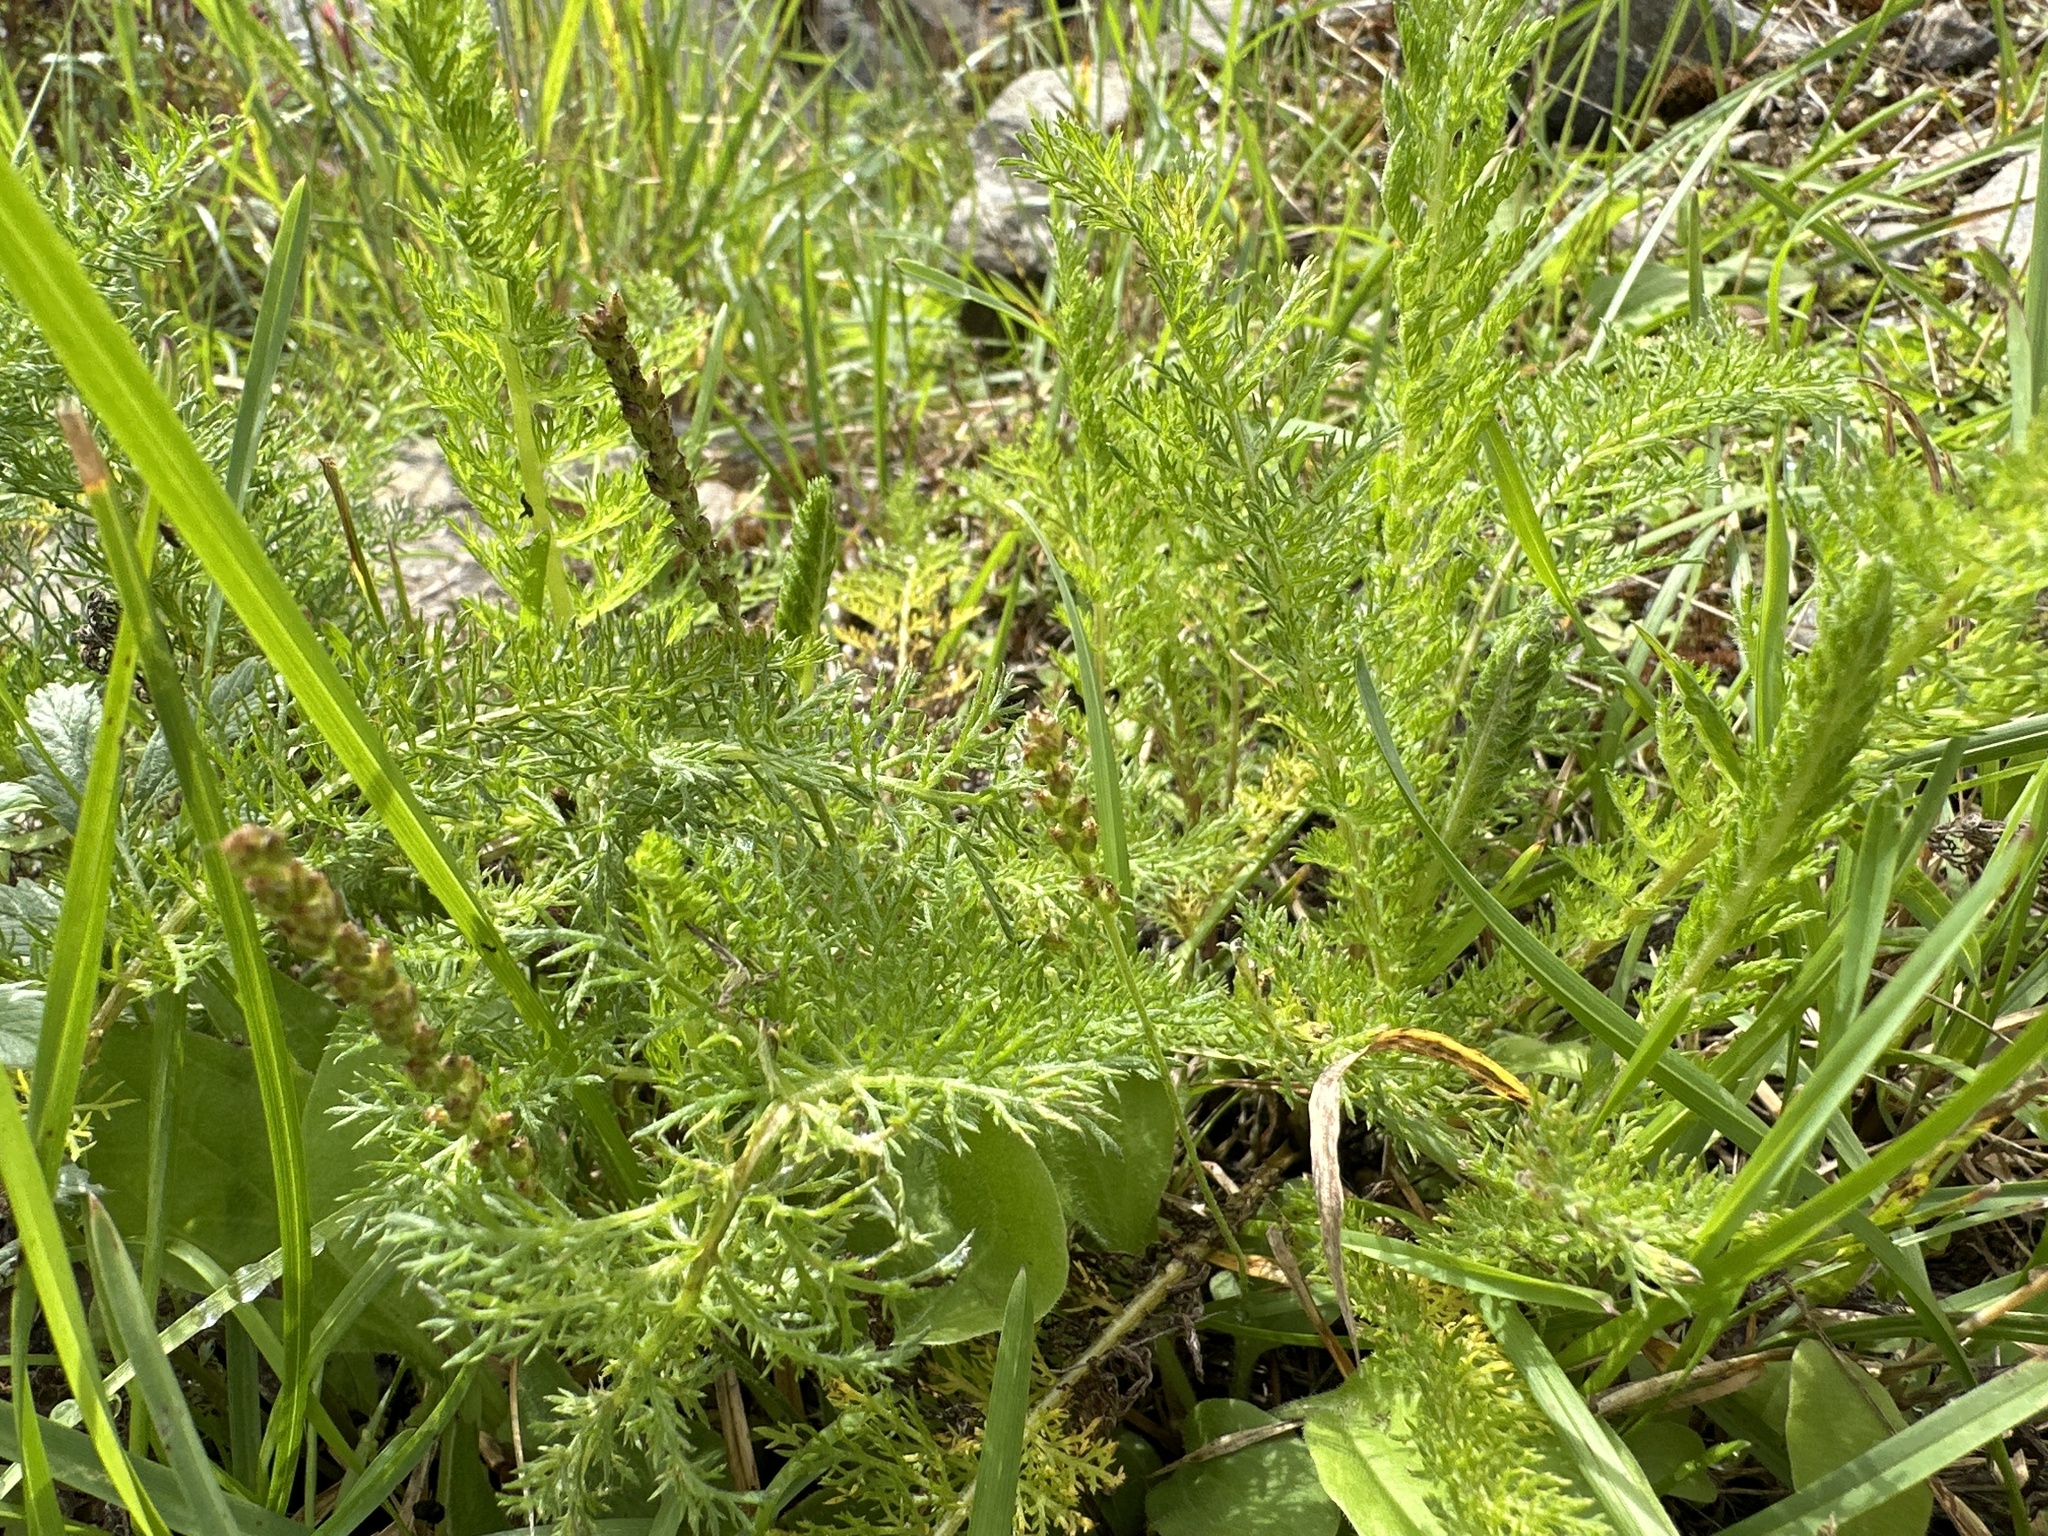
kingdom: Plantae
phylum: Tracheophyta
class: Magnoliopsida
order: Asterales
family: Asteraceae
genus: Achillea
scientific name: Achillea millefolium
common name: Yarrow
